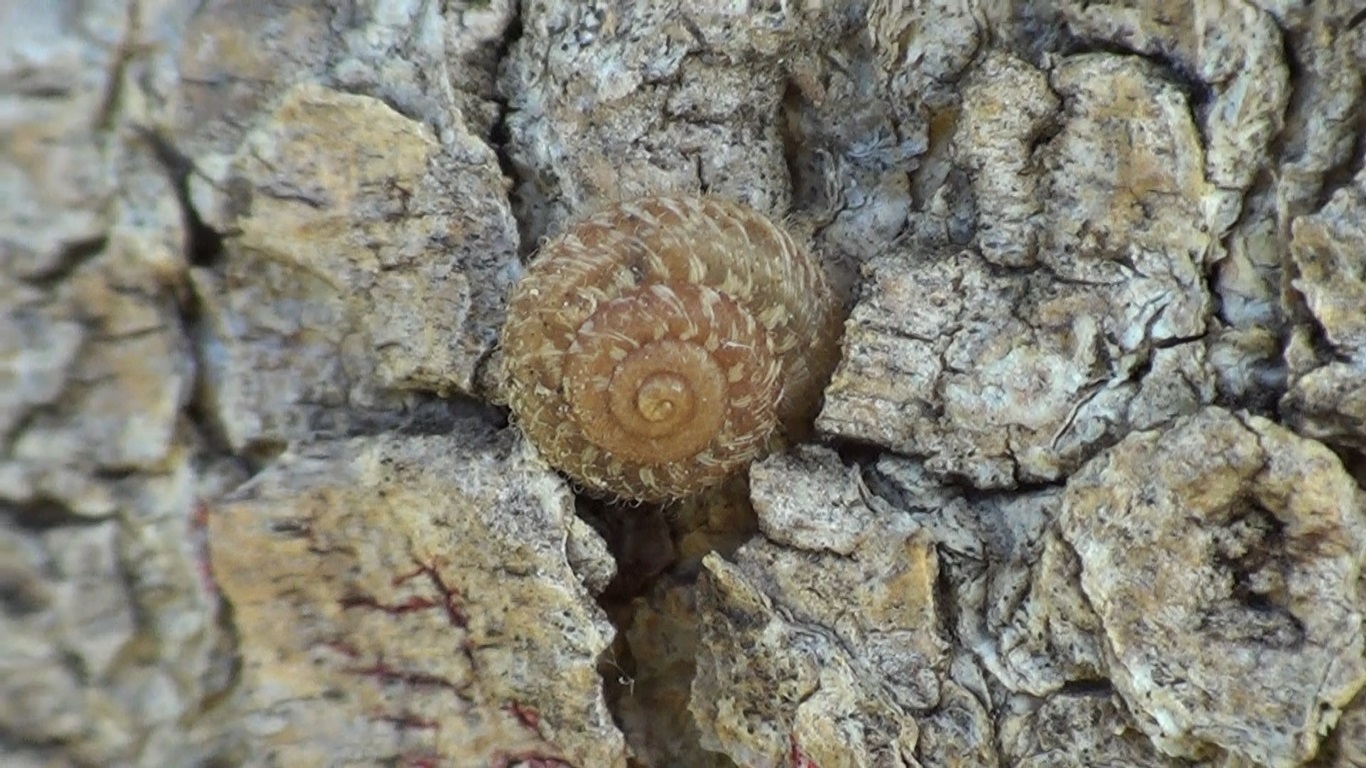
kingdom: Animalia
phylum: Mollusca
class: Gastropoda
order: Stylommatophora
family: Geomitridae
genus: Xerotricha
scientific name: Xerotricha conspurcata
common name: Snail
